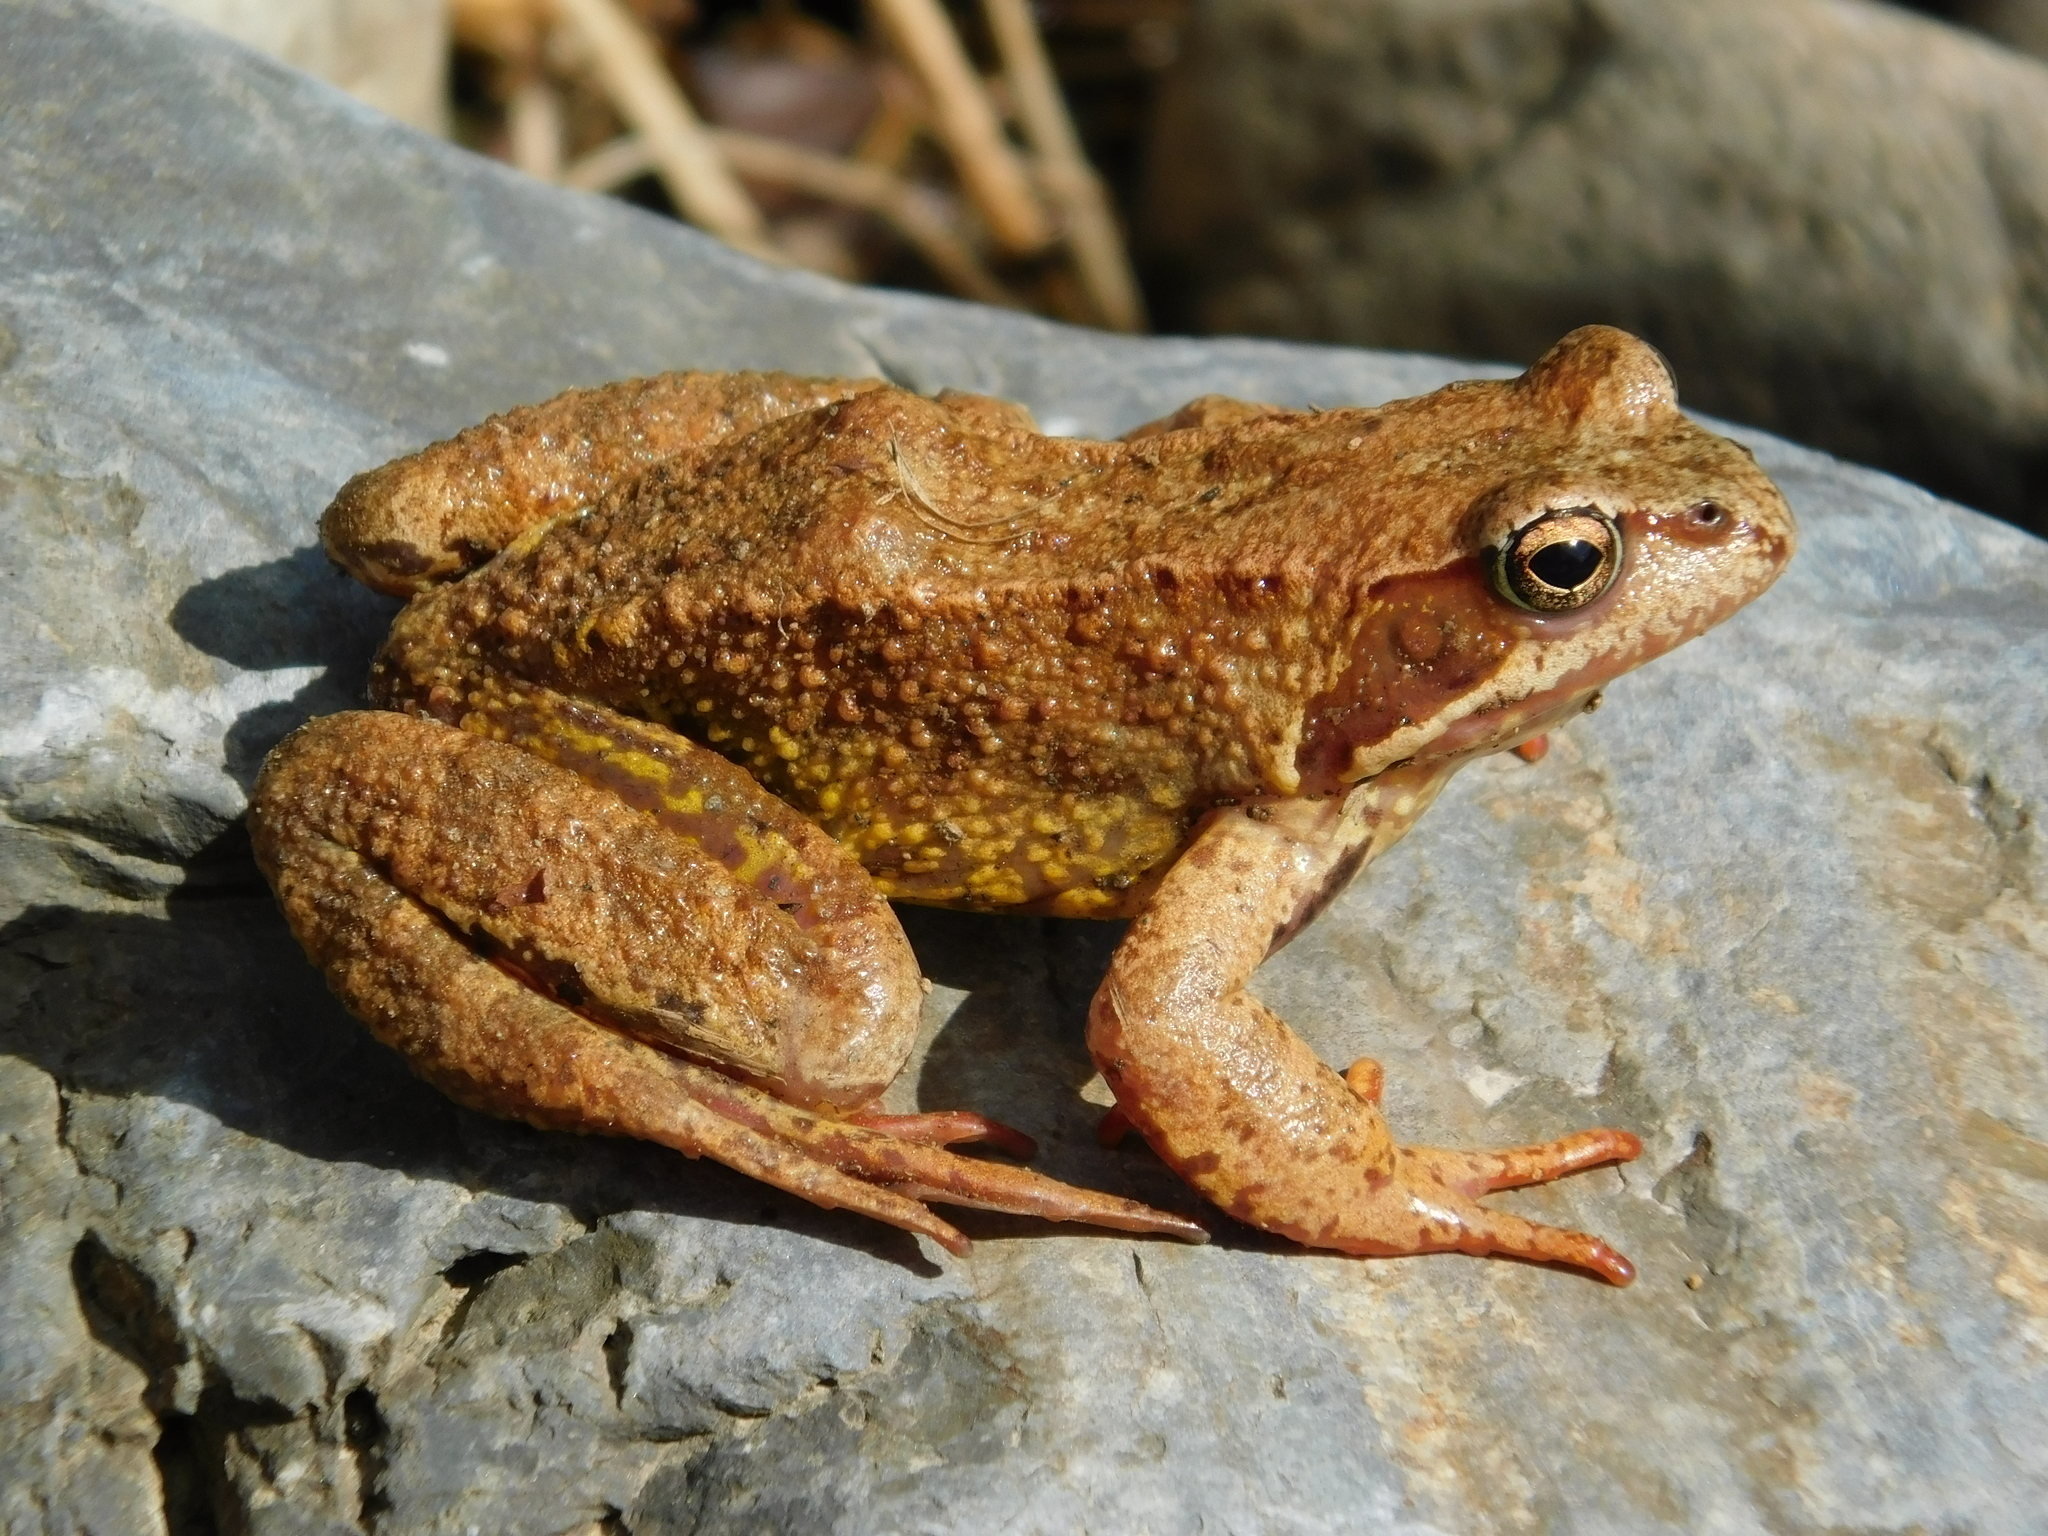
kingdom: Animalia
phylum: Chordata
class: Amphibia
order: Anura
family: Ranidae
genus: Rana
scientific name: Rana temporaria
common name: Common frog
